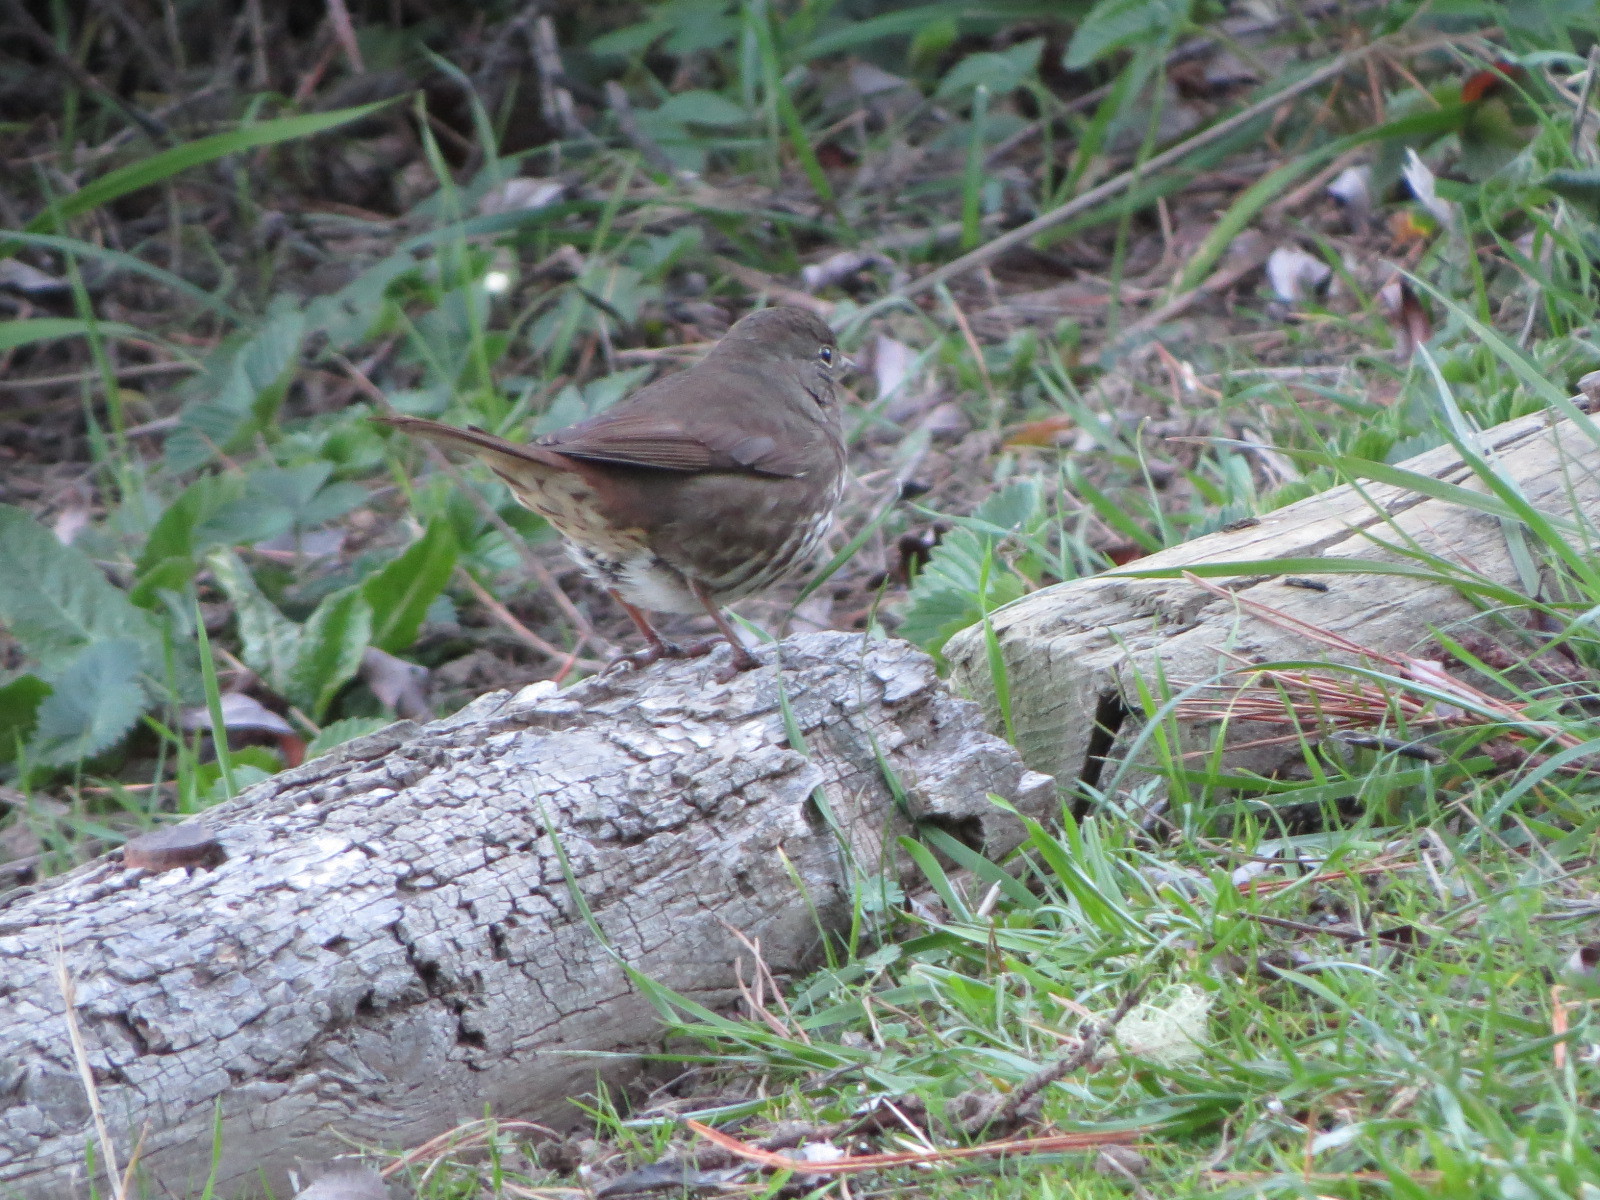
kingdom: Animalia
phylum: Chordata
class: Aves
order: Passeriformes
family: Passerellidae
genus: Passerella
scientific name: Passerella iliaca
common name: Fox sparrow
